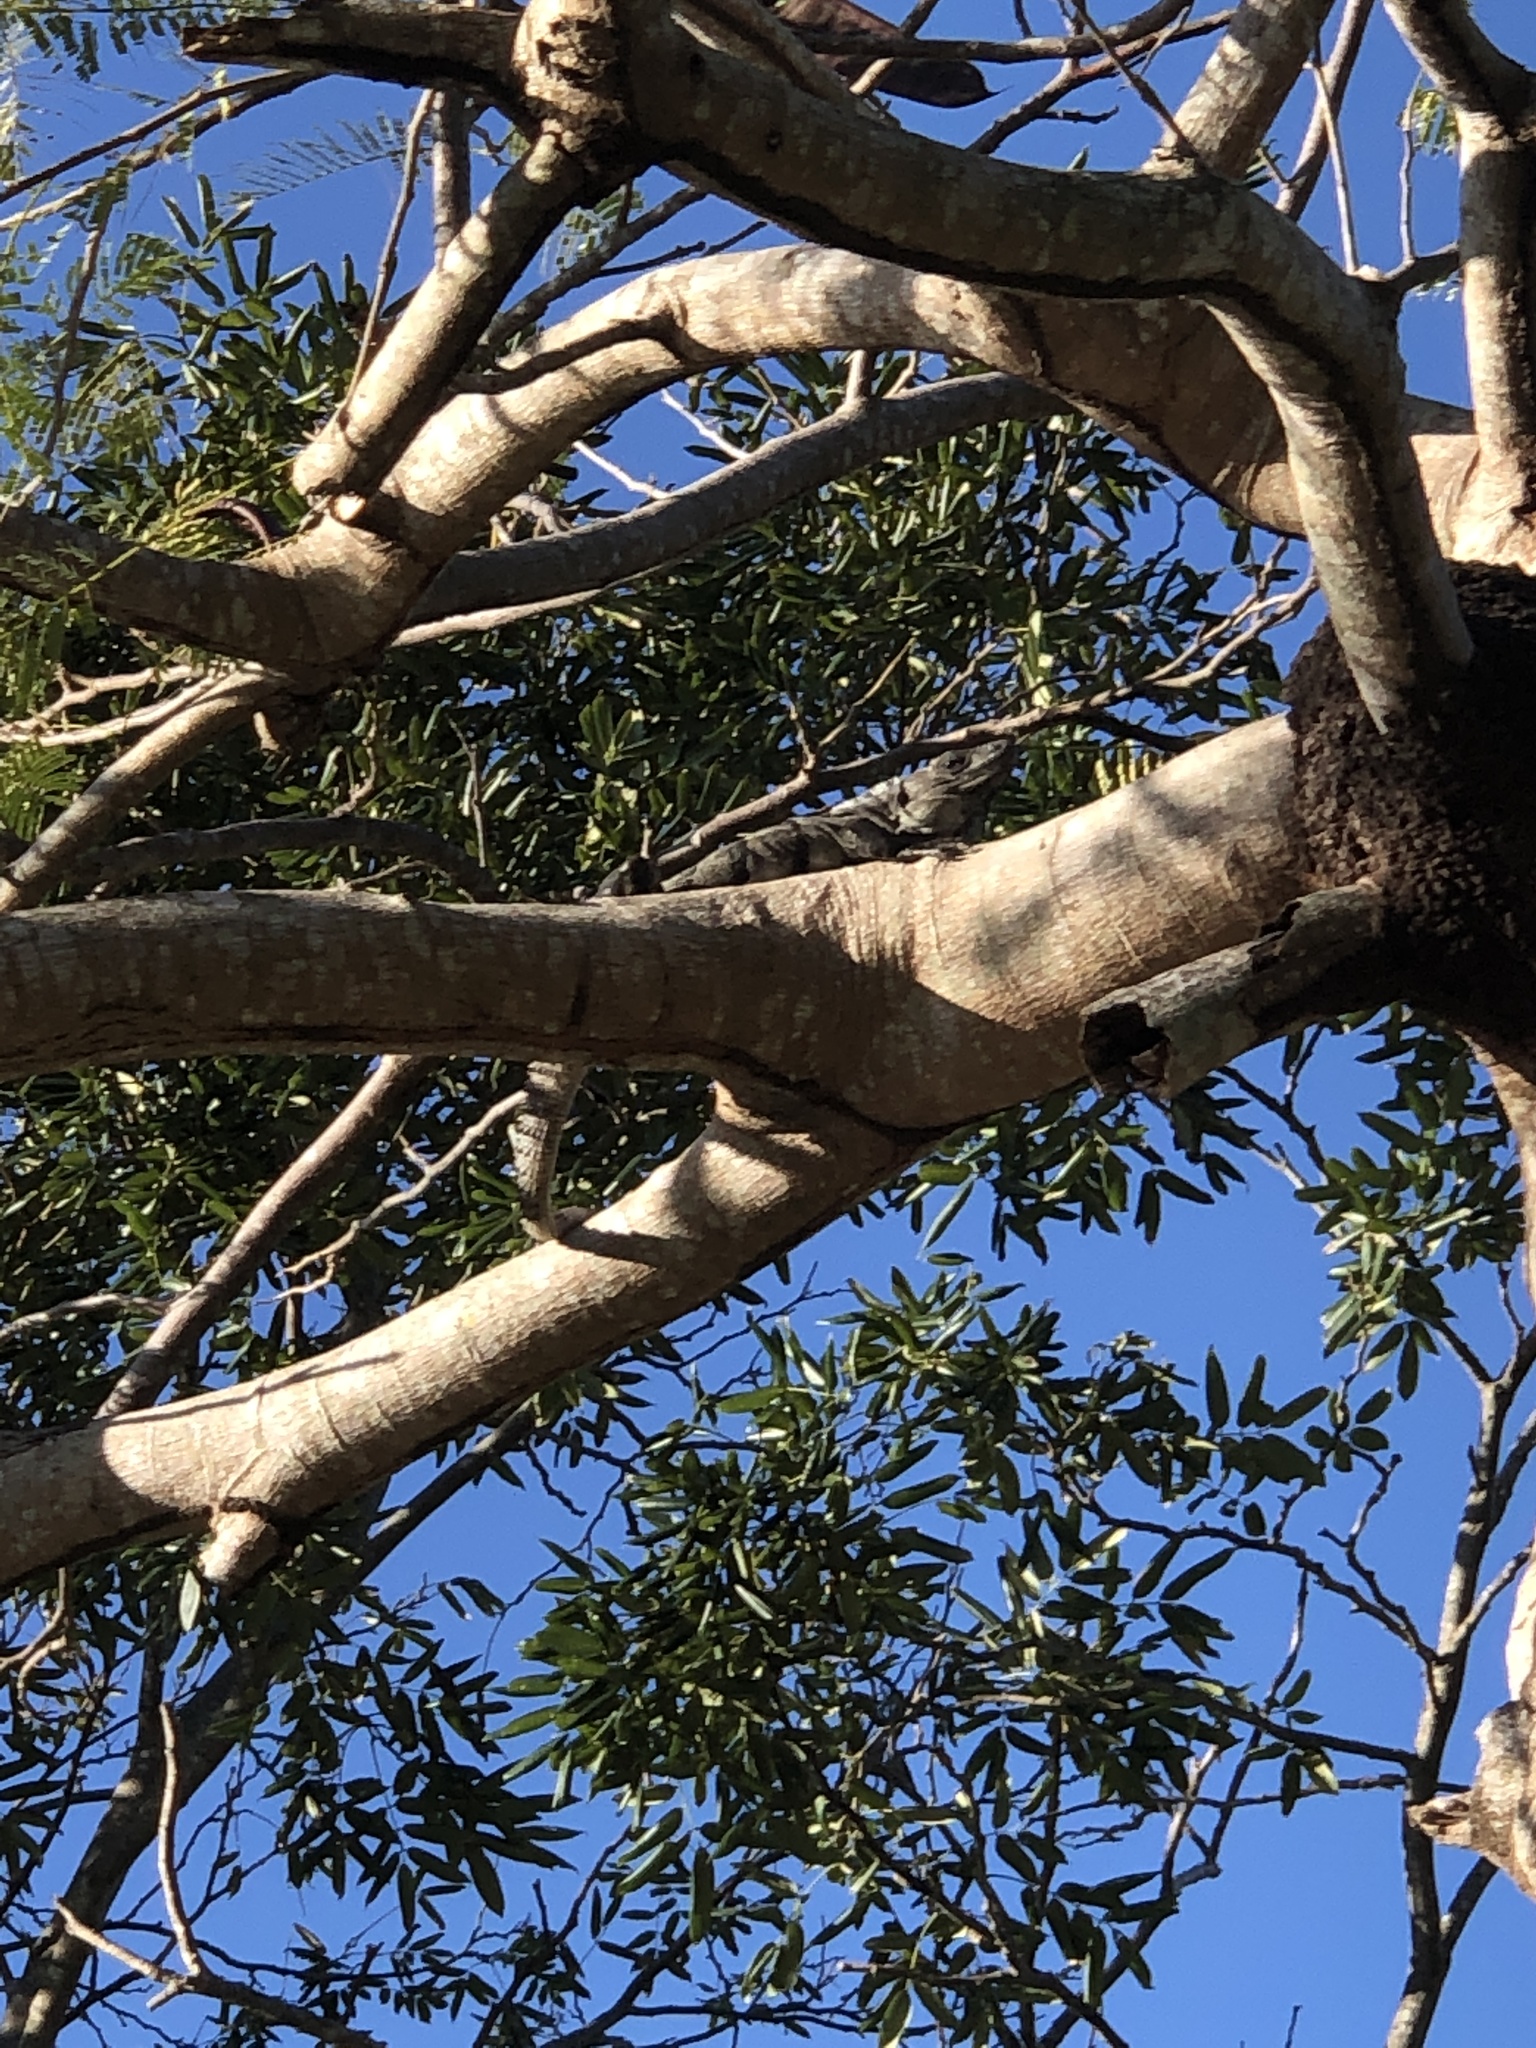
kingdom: Animalia
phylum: Chordata
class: Squamata
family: Iguanidae
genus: Ctenosaura
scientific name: Ctenosaura similis
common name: Black spiny-tailed iguana
